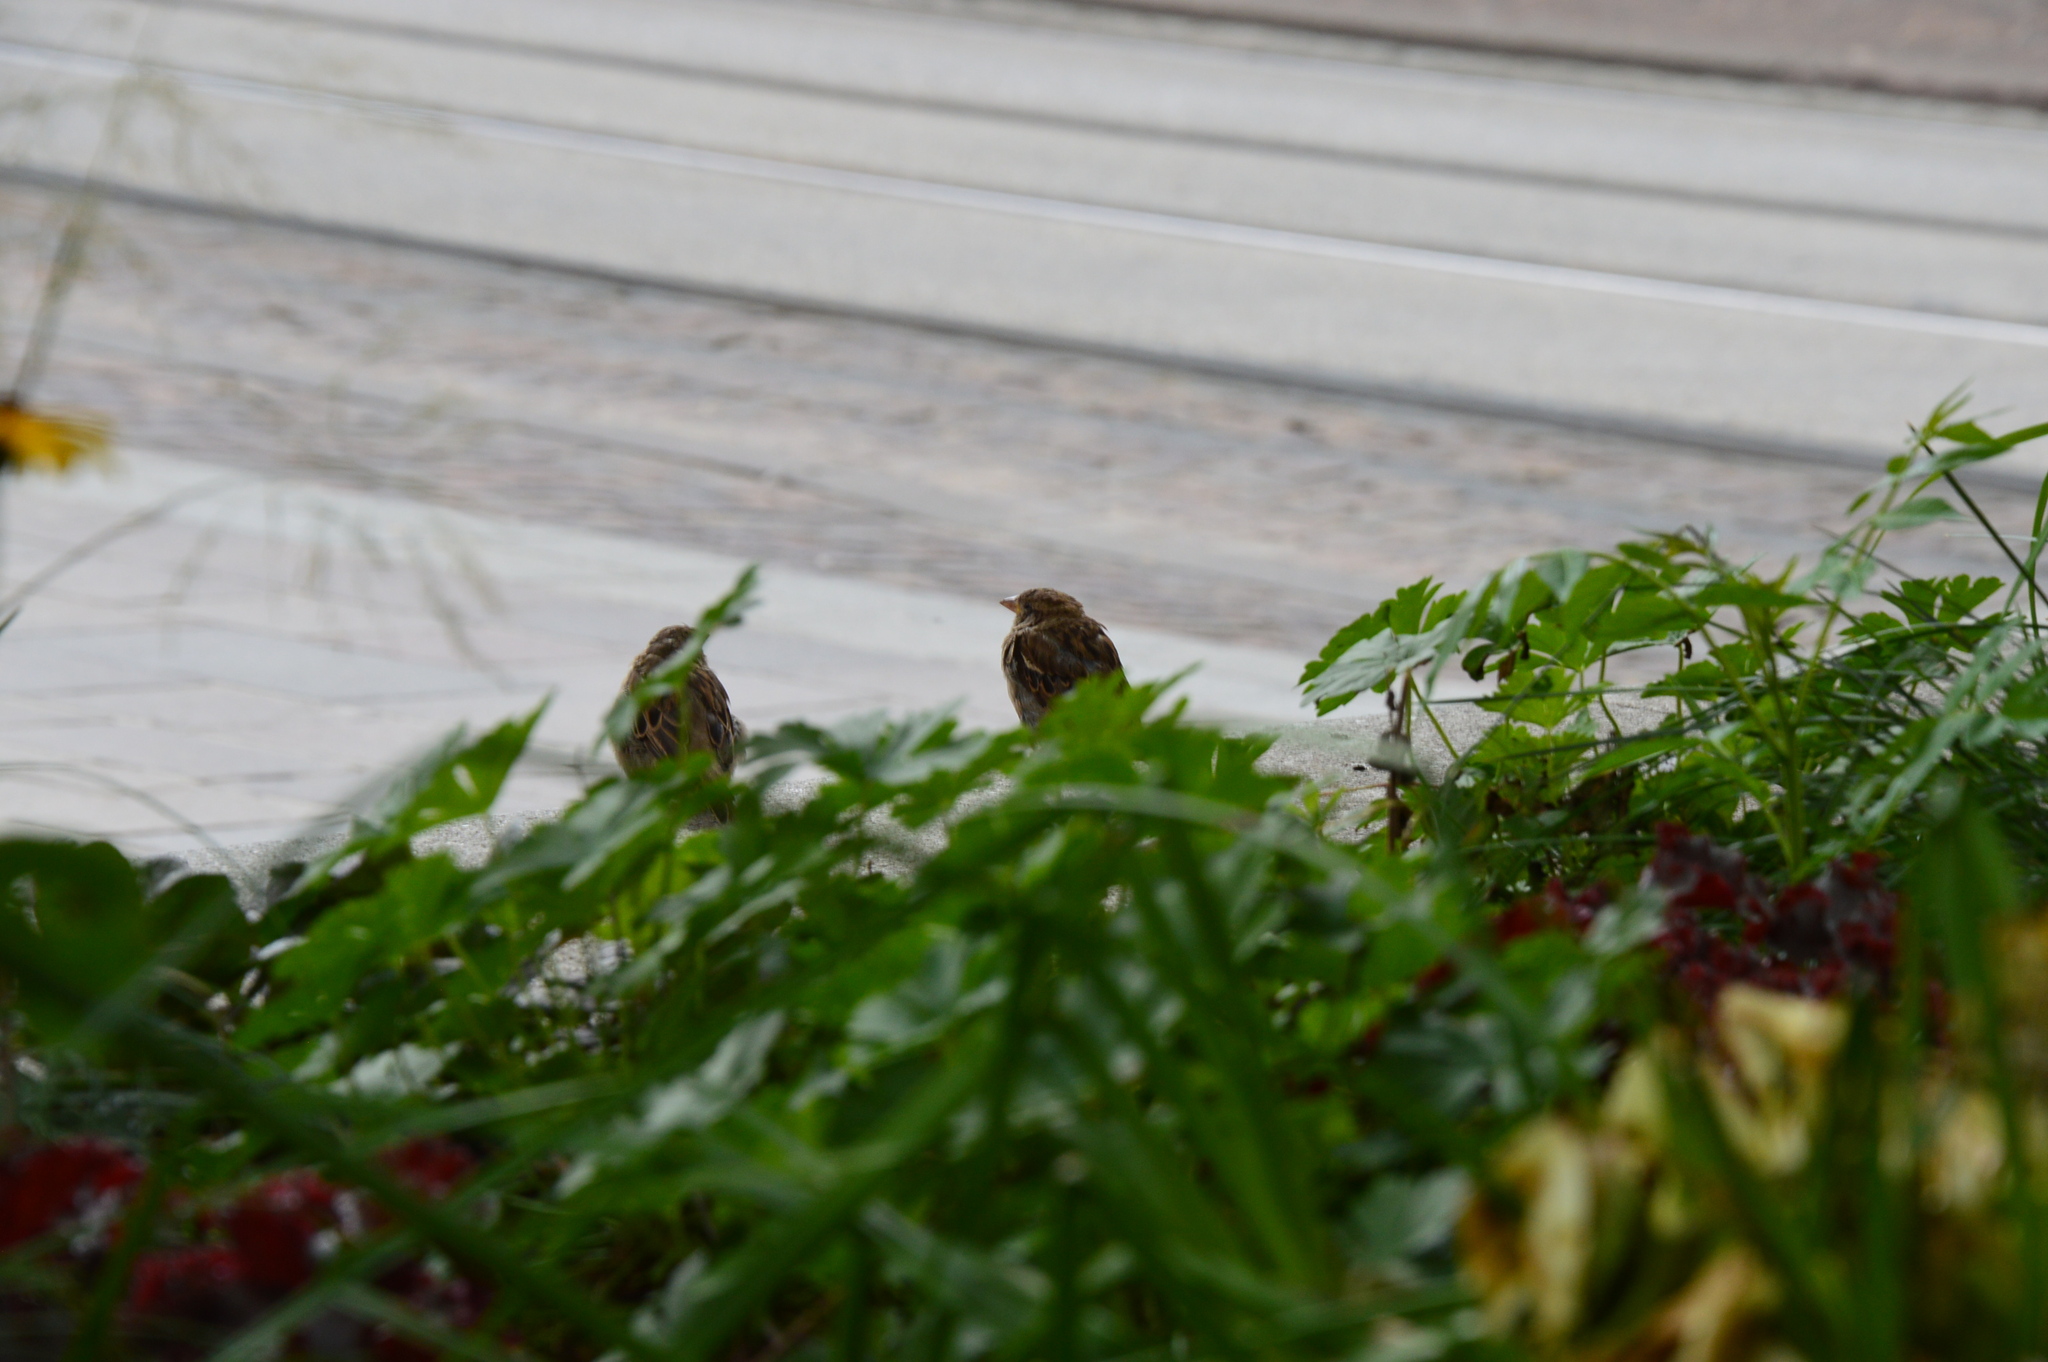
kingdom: Animalia
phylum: Chordata
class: Aves
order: Passeriformes
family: Passeridae
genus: Passer
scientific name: Passer domesticus
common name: House sparrow
